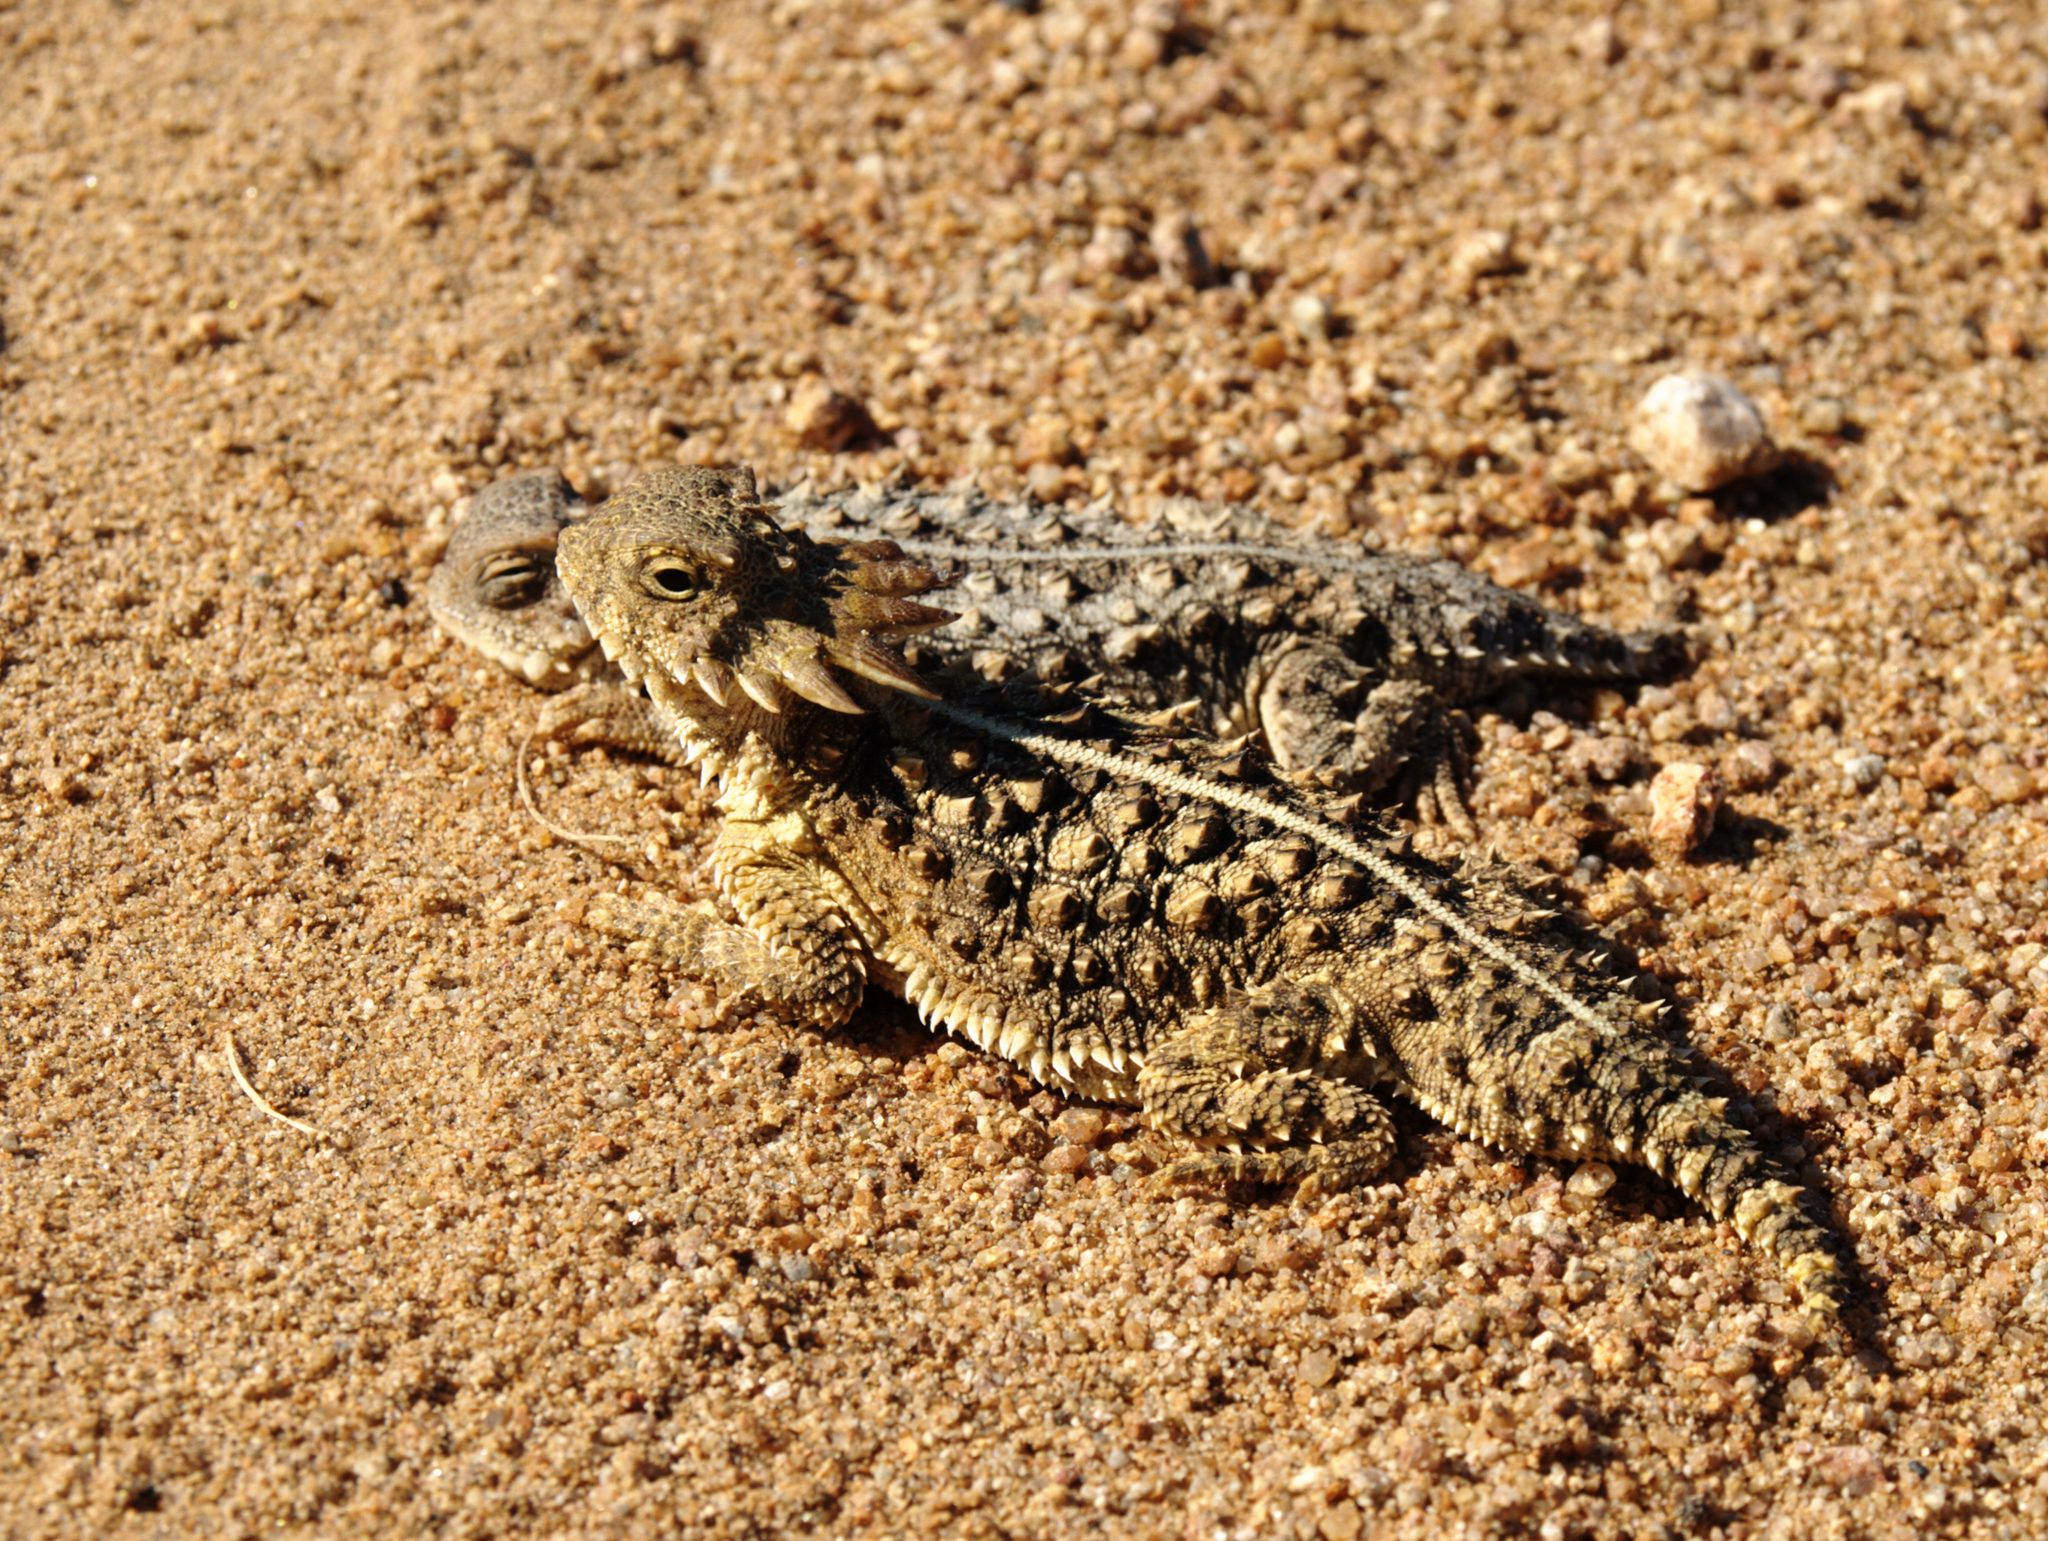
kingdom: Animalia
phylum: Chordata
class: Squamata
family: Phrynosomatidae
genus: Phrynosoma
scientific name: Phrynosoma solare
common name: Regal horned lizard
